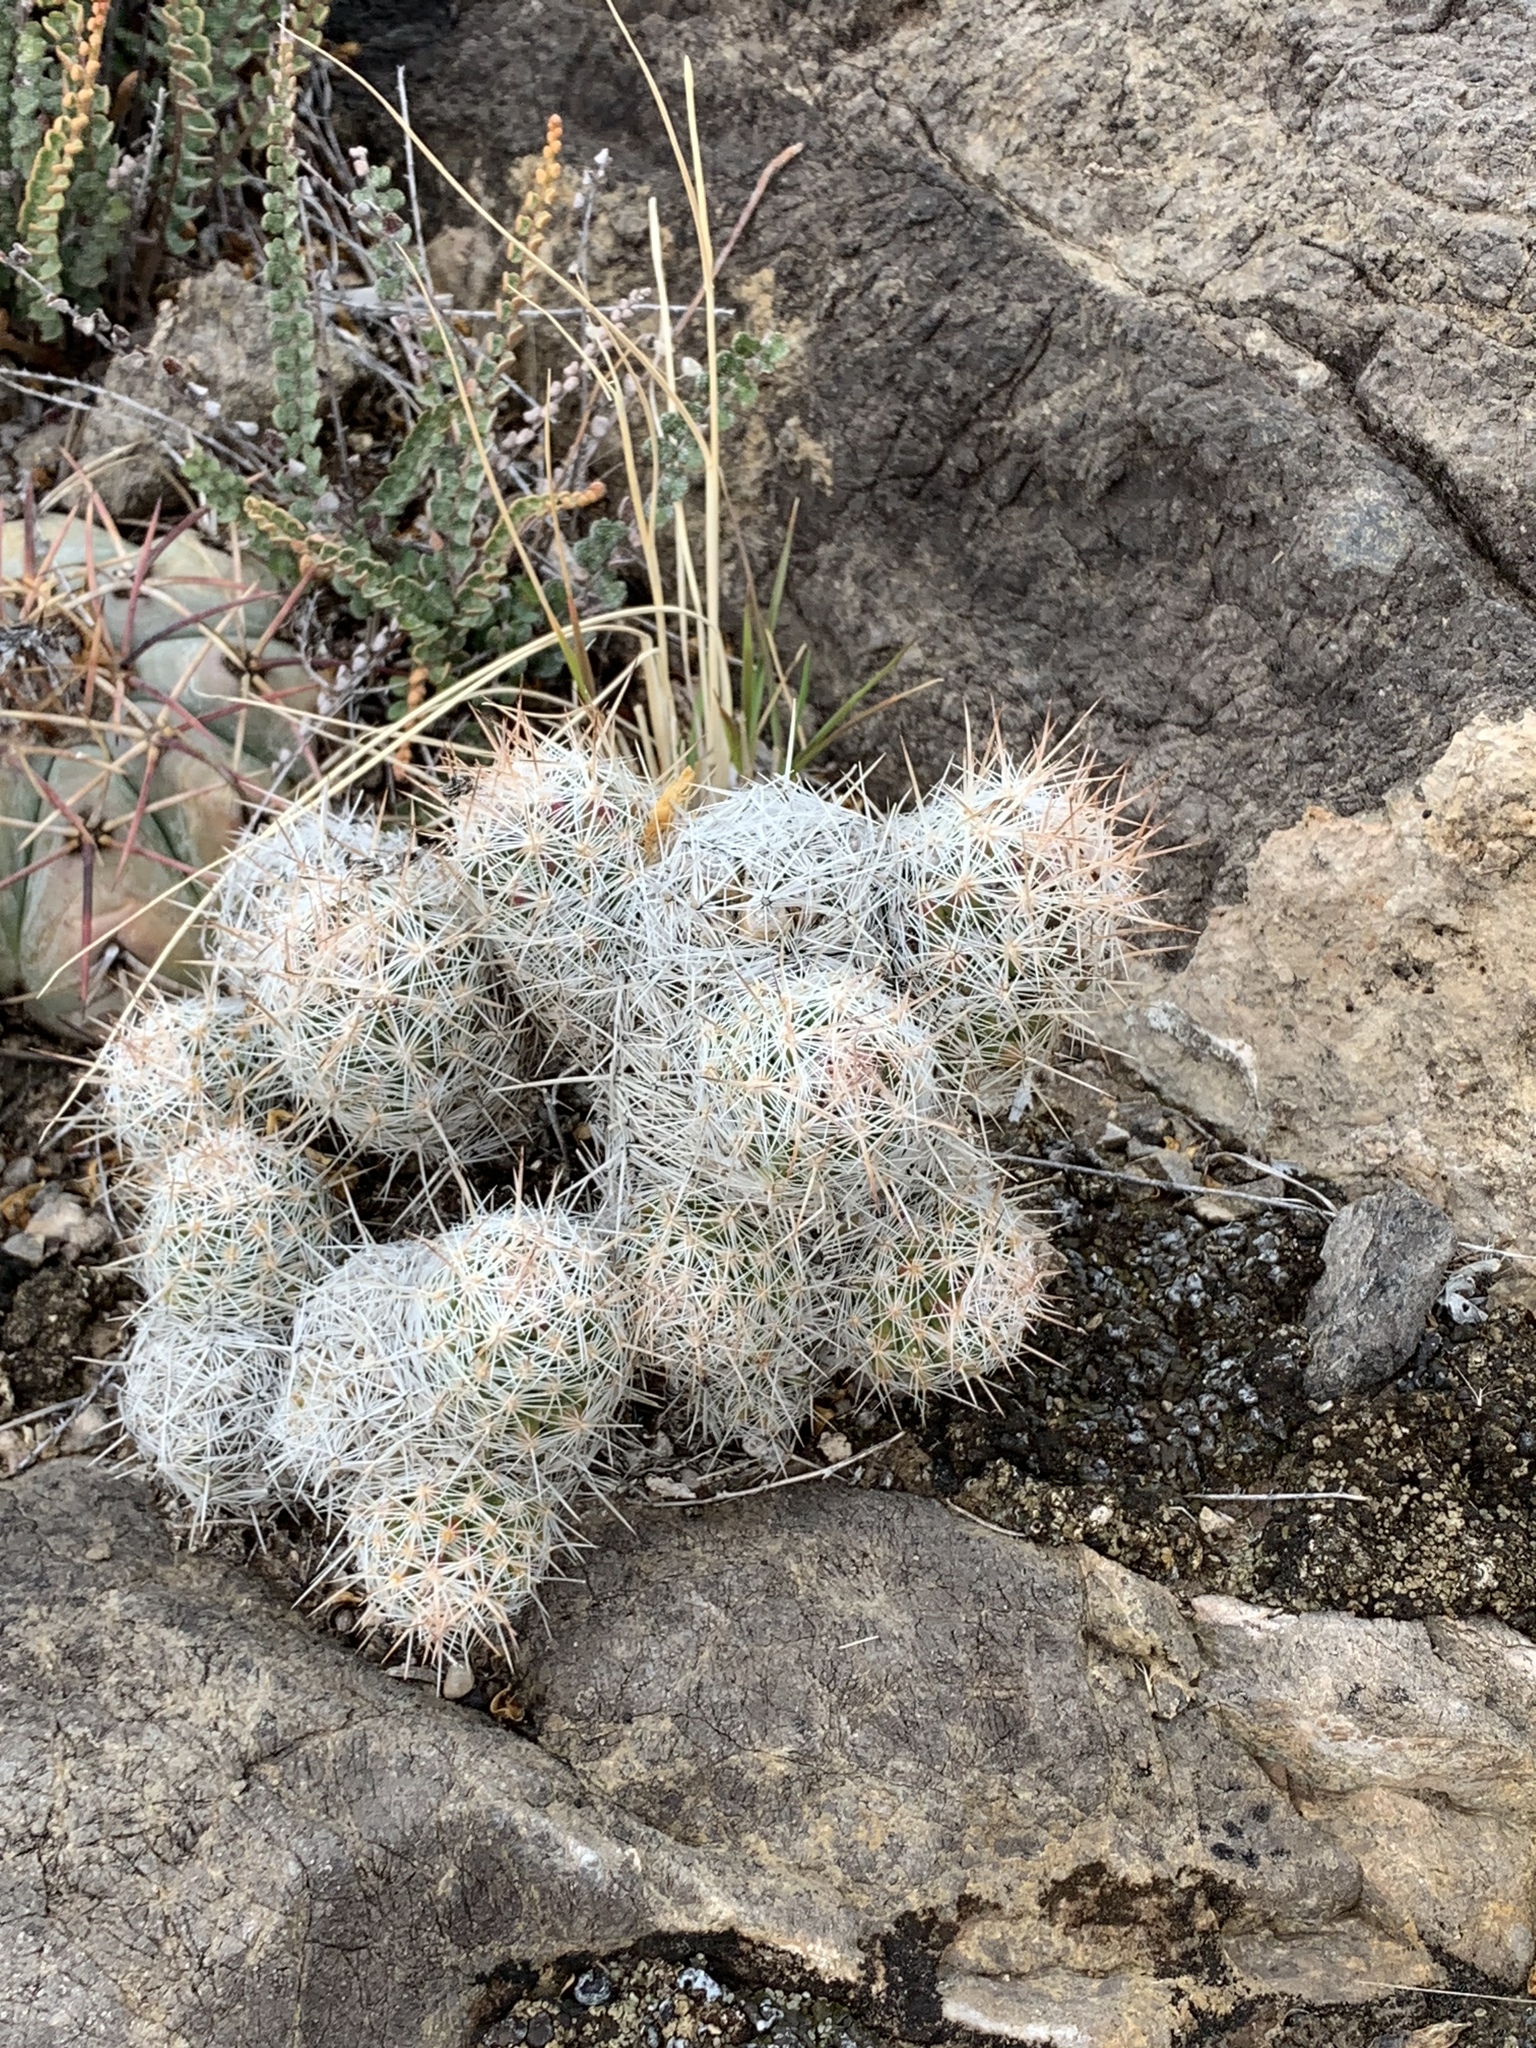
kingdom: Plantae
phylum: Tracheophyta
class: Magnoliopsida
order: Caryophyllales
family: Cactaceae
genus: Pelecyphora
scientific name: Pelecyphora tuberculosa
